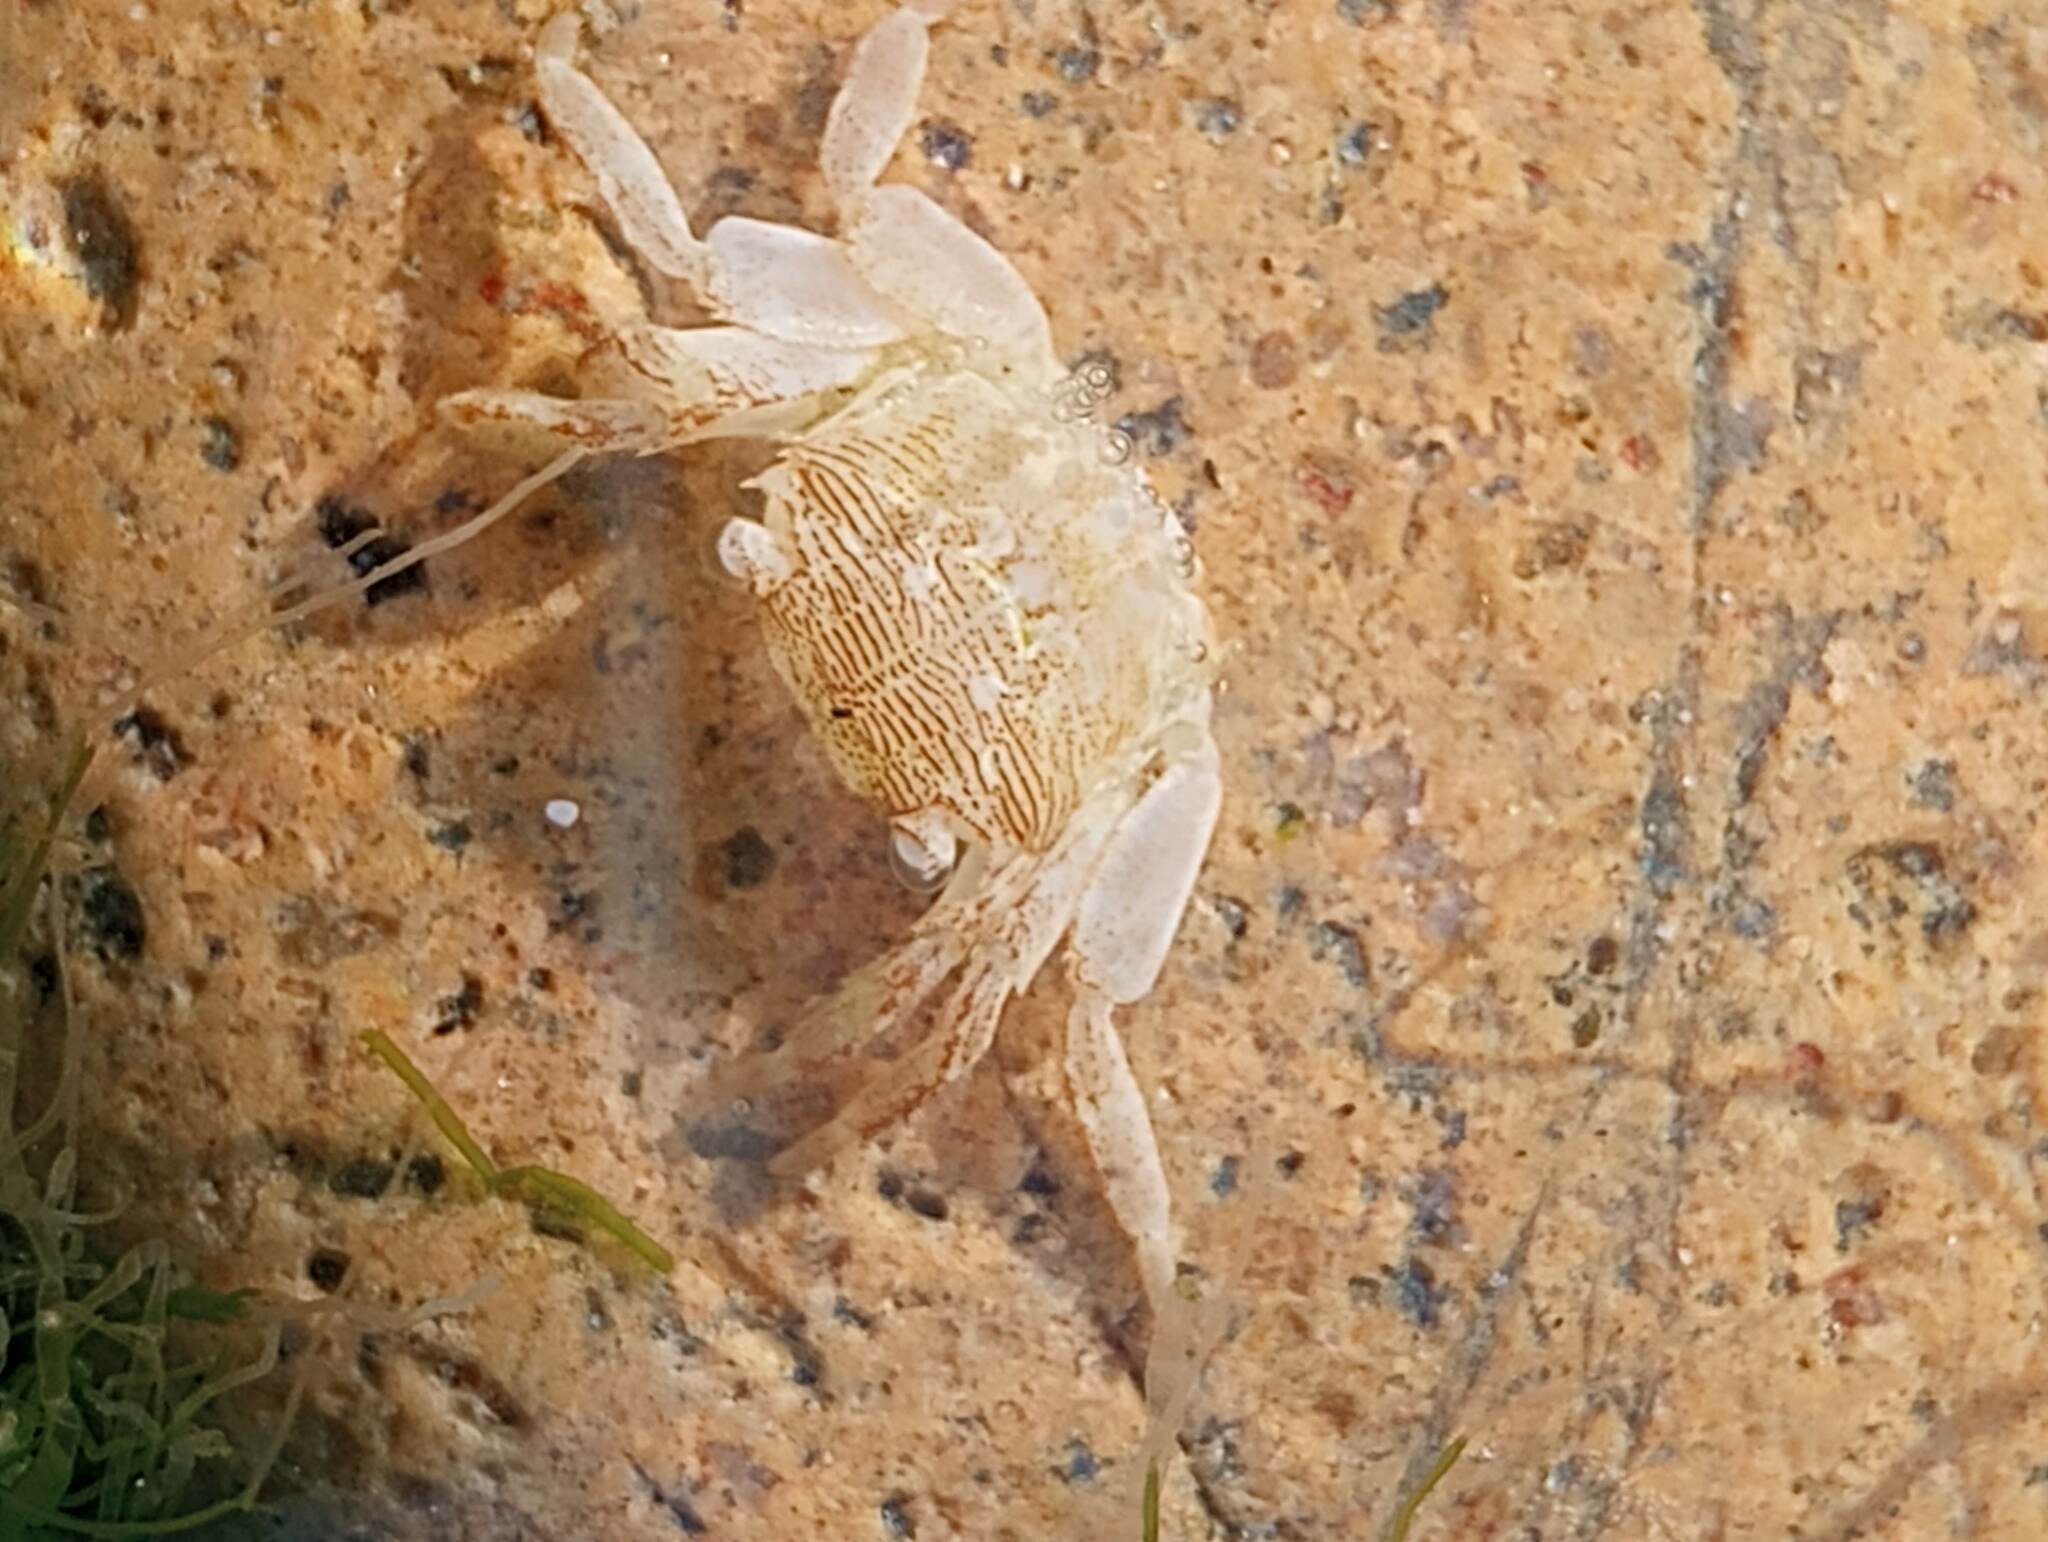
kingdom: Animalia
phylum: Arthropoda
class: Malacostraca
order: Decapoda
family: Grapsidae
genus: Pachygrapsus
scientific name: Pachygrapsus crassipes
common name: Striped shore crab
